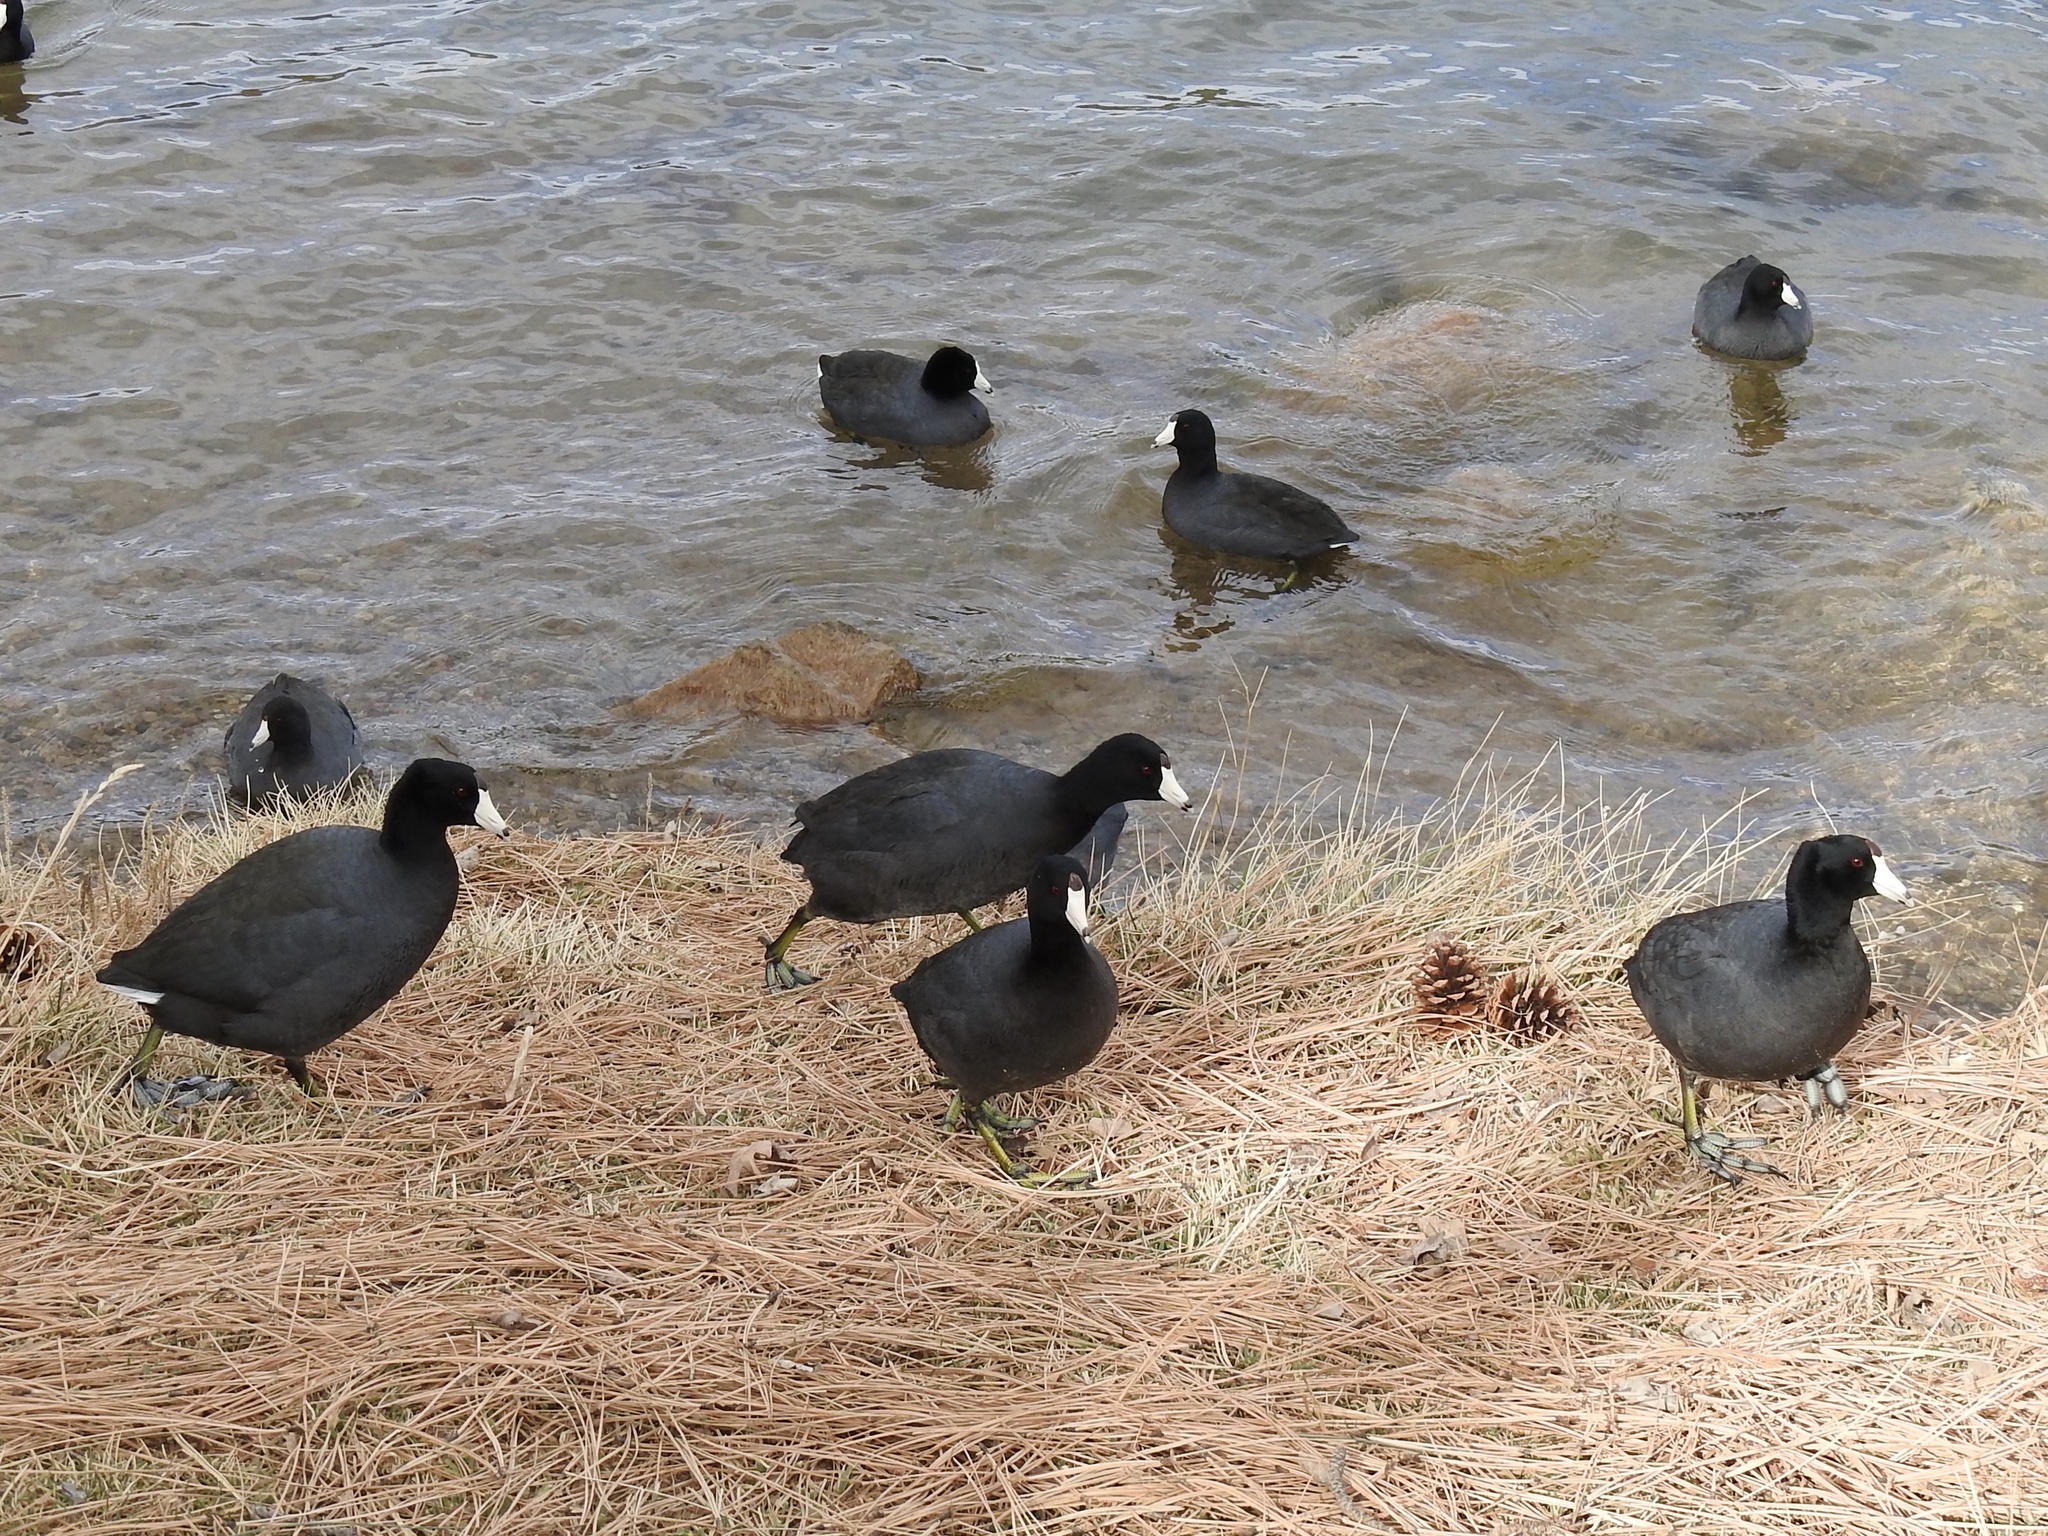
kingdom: Animalia
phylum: Chordata
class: Aves
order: Gruiformes
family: Rallidae
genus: Fulica
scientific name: Fulica americana
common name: American coot
